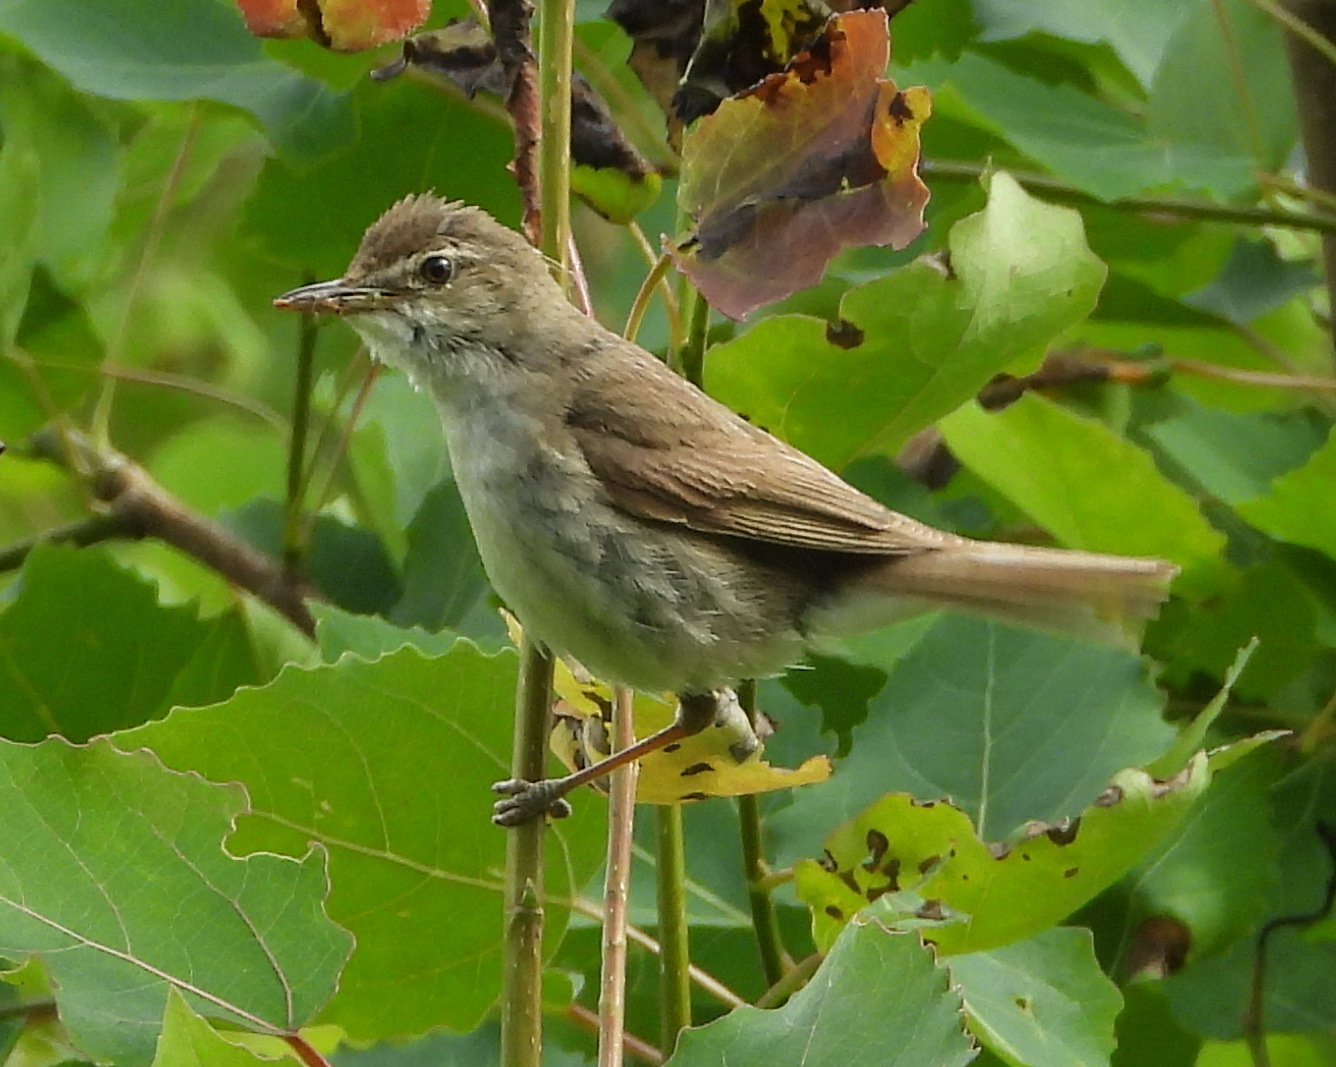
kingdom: Animalia
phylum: Chordata
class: Aves
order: Passeriformes
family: Acrocephalidae
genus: Acrocephalus
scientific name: Acrocephalus dumetorum
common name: Blyth's reed warbler
